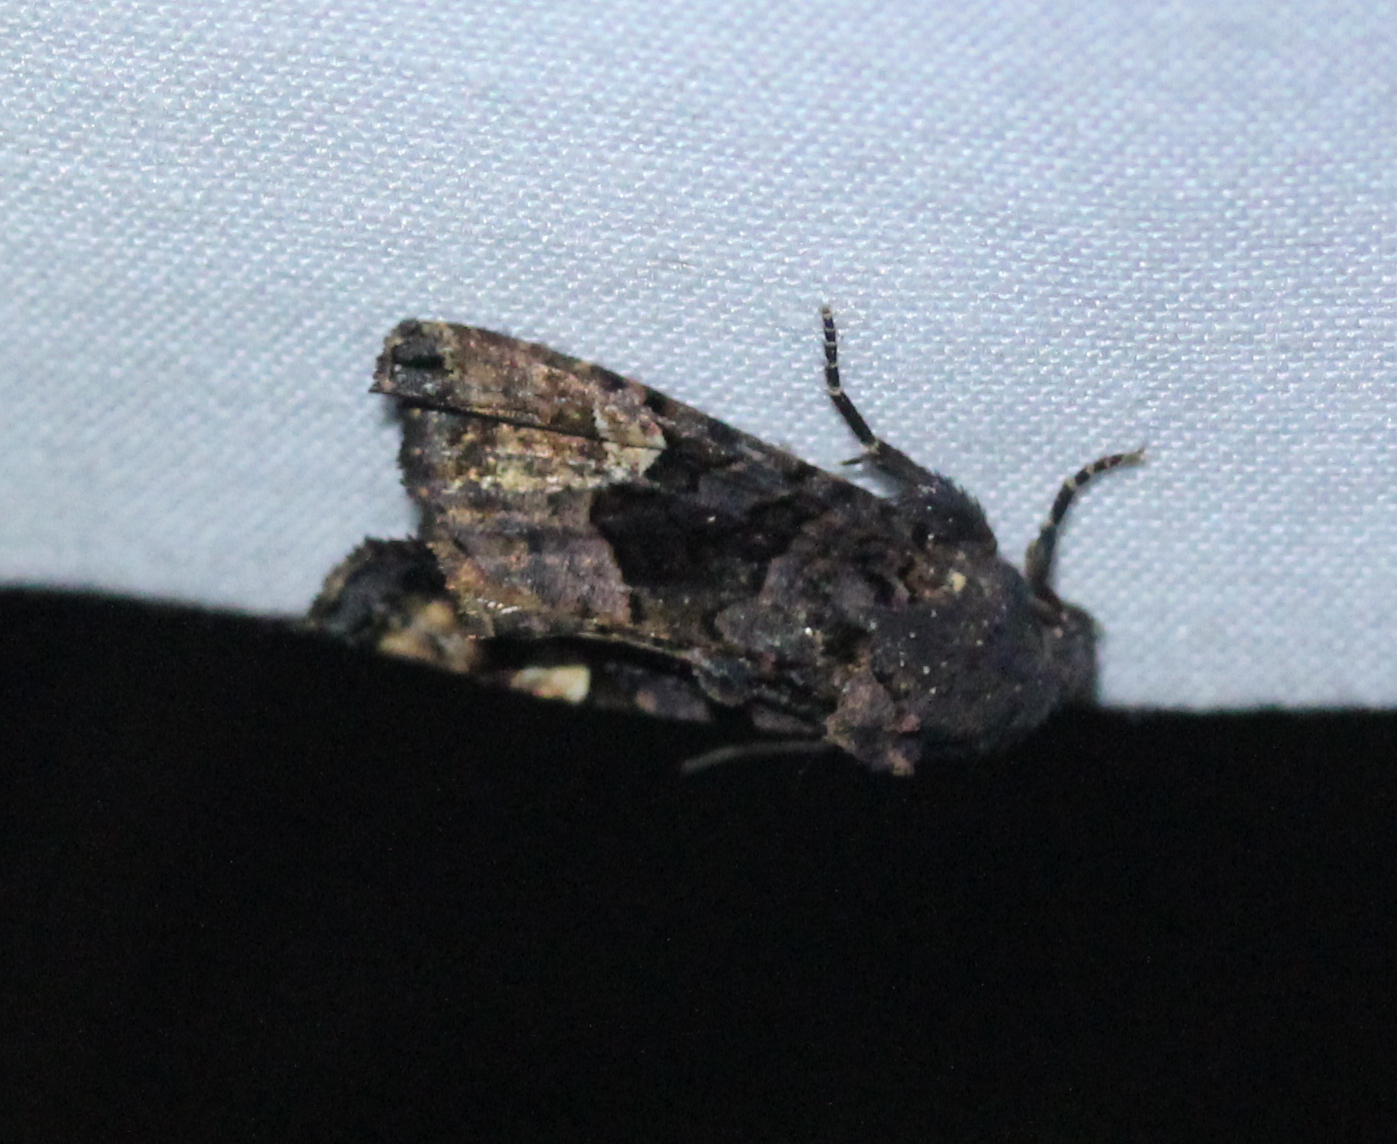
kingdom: Animalia
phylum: Arthropoda
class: Insecta
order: Lepidoptera
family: Noctuidae
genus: Euplexia
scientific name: Euplexia benesimilis
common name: American angle shades
